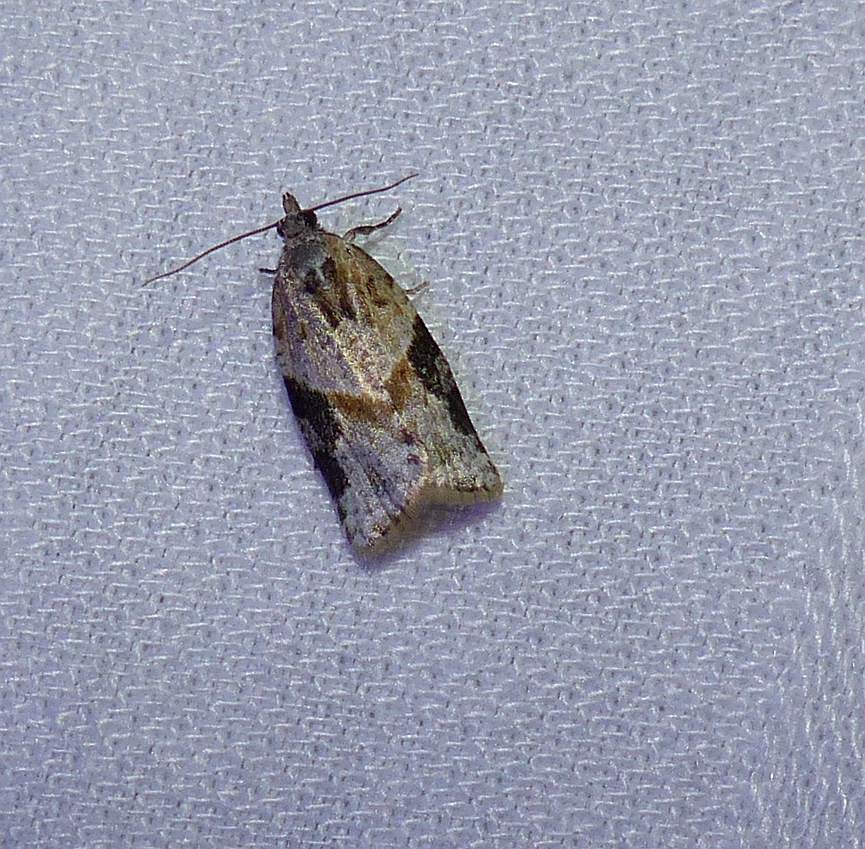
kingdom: Animalia
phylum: Arthropoda
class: Insecta
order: Lepidoptera
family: Tortricidae
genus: Argyrotaenia
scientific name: Argyrotaenia mariana
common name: Gray-banded leafroller moth
